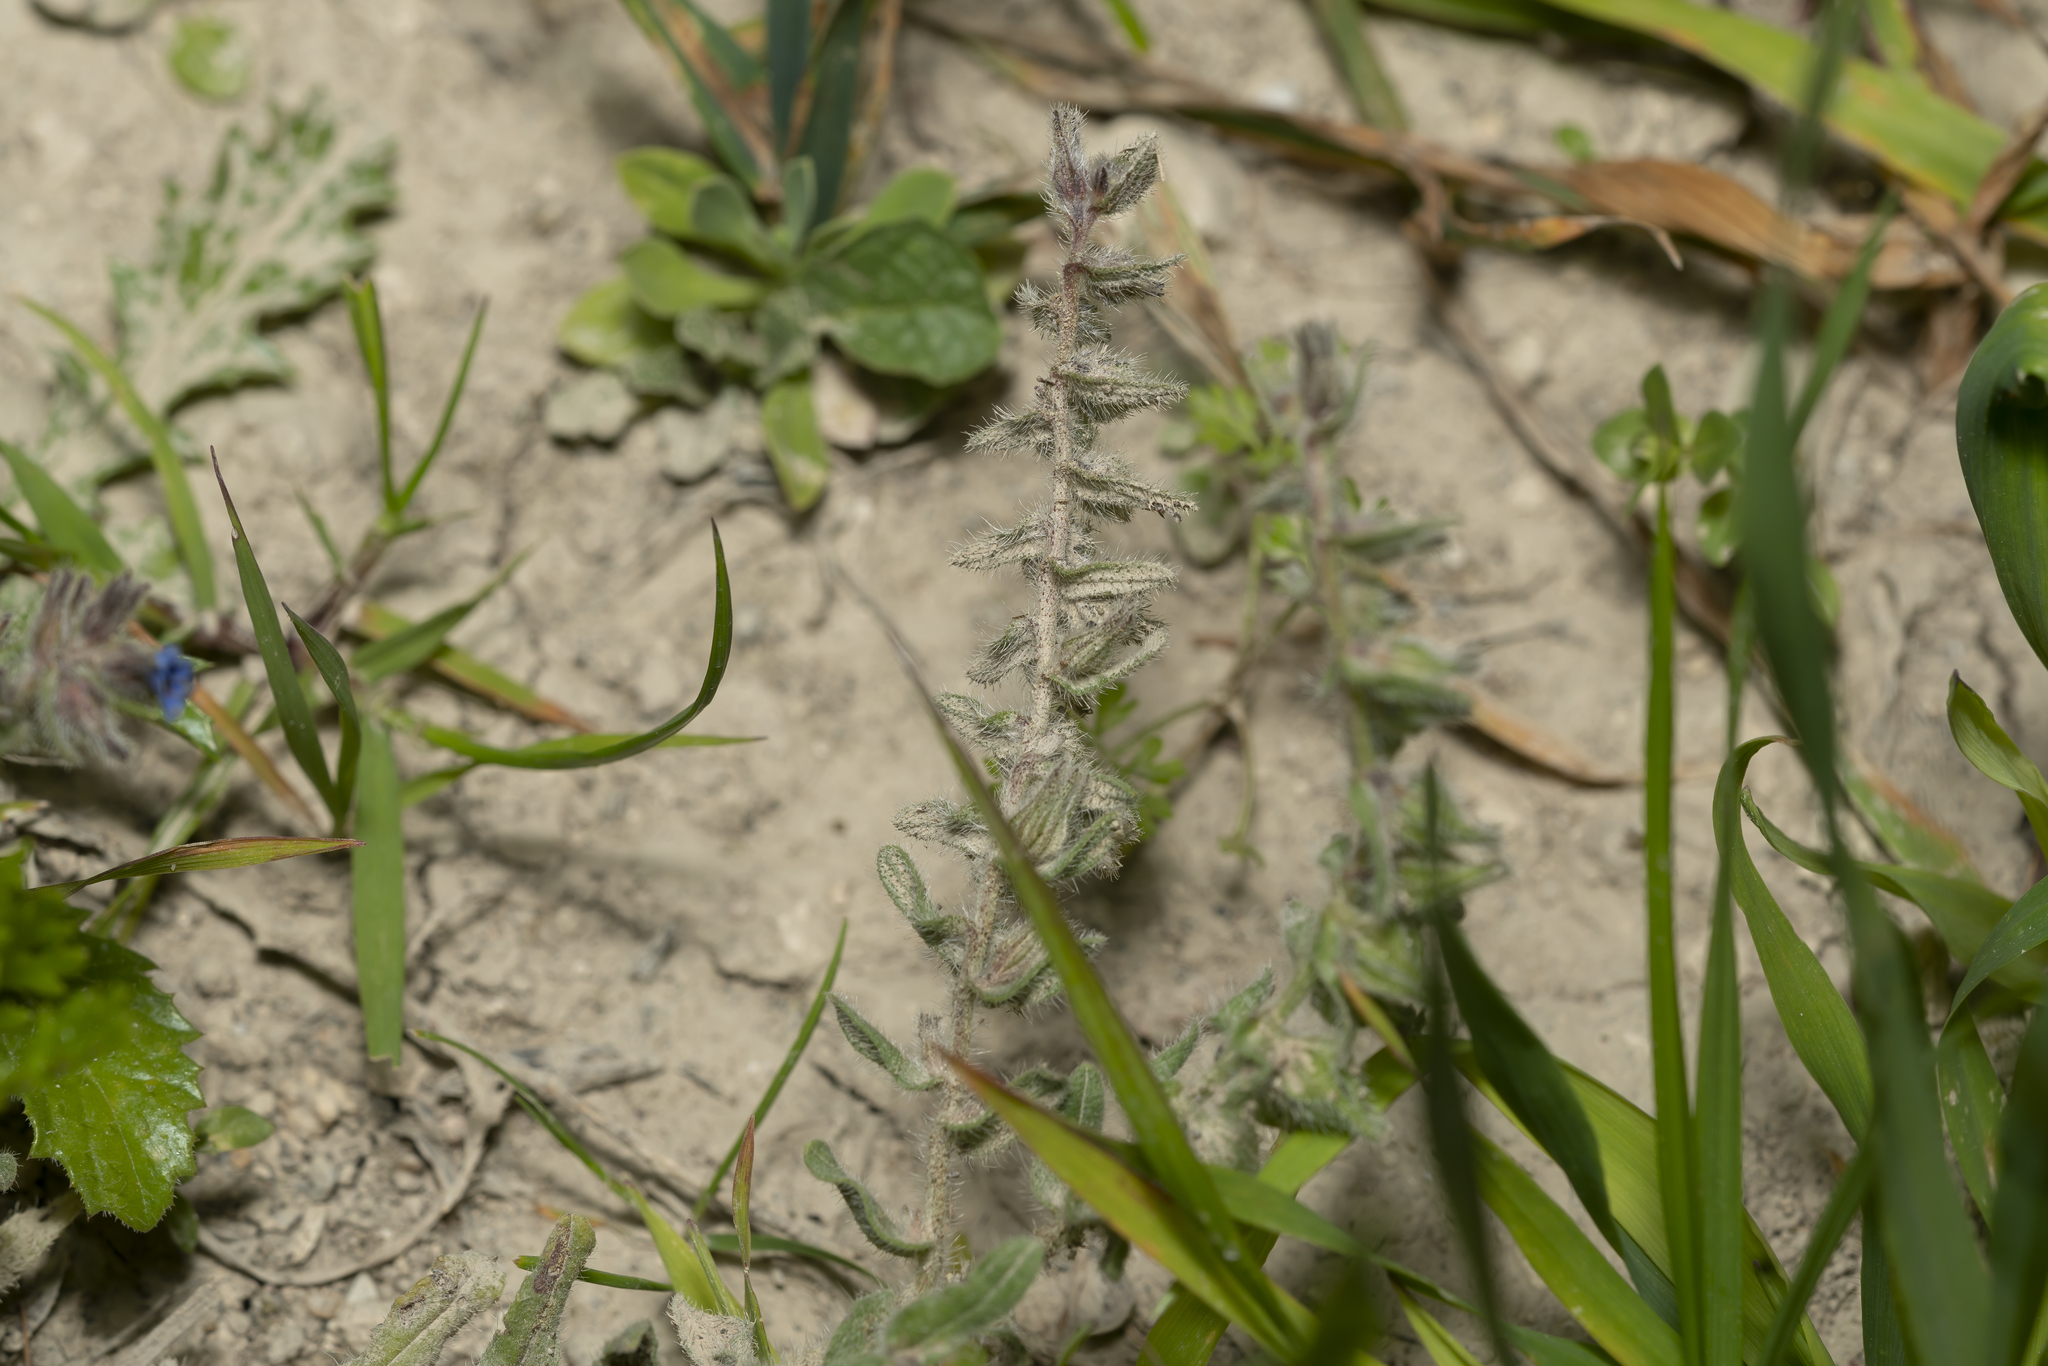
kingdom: Plantae
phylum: Tracheophyta
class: Magnoliopsida
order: Boraginales
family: Boraginaceae
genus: Alkanna
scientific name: Alkanna tinctoria
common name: Dyer's-alkanet
